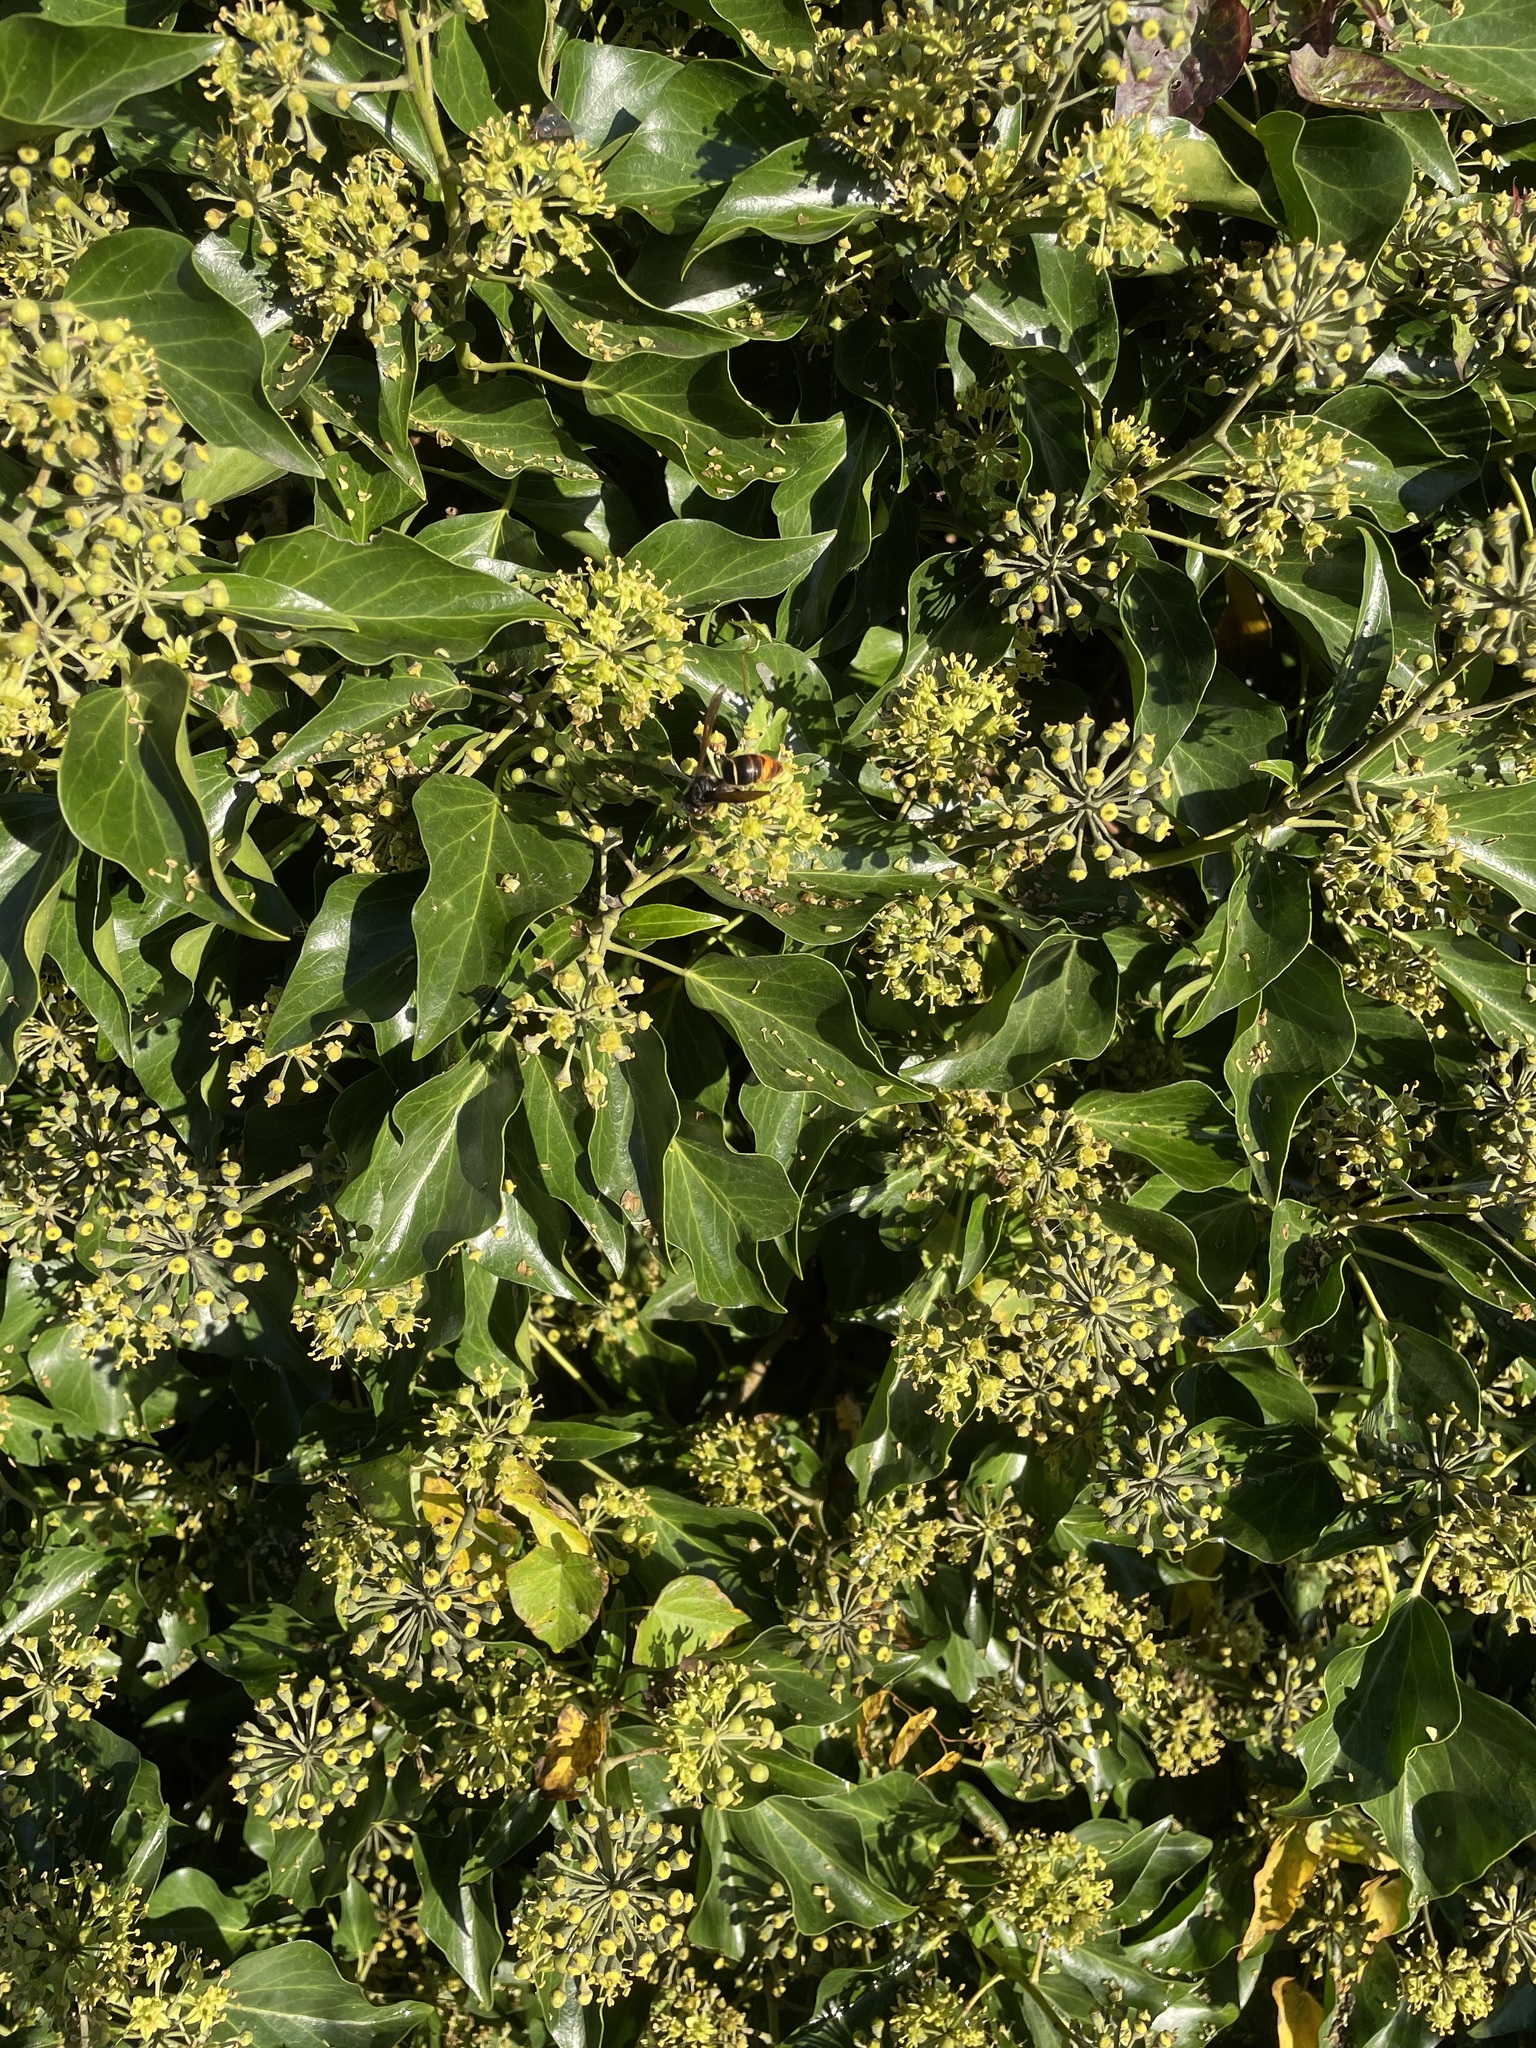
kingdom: Animalia
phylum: Arthropoda
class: Insecta
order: Hymenoptera
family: Vespidae
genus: Vespa
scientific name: Vespa velutina
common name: Asian hornet
